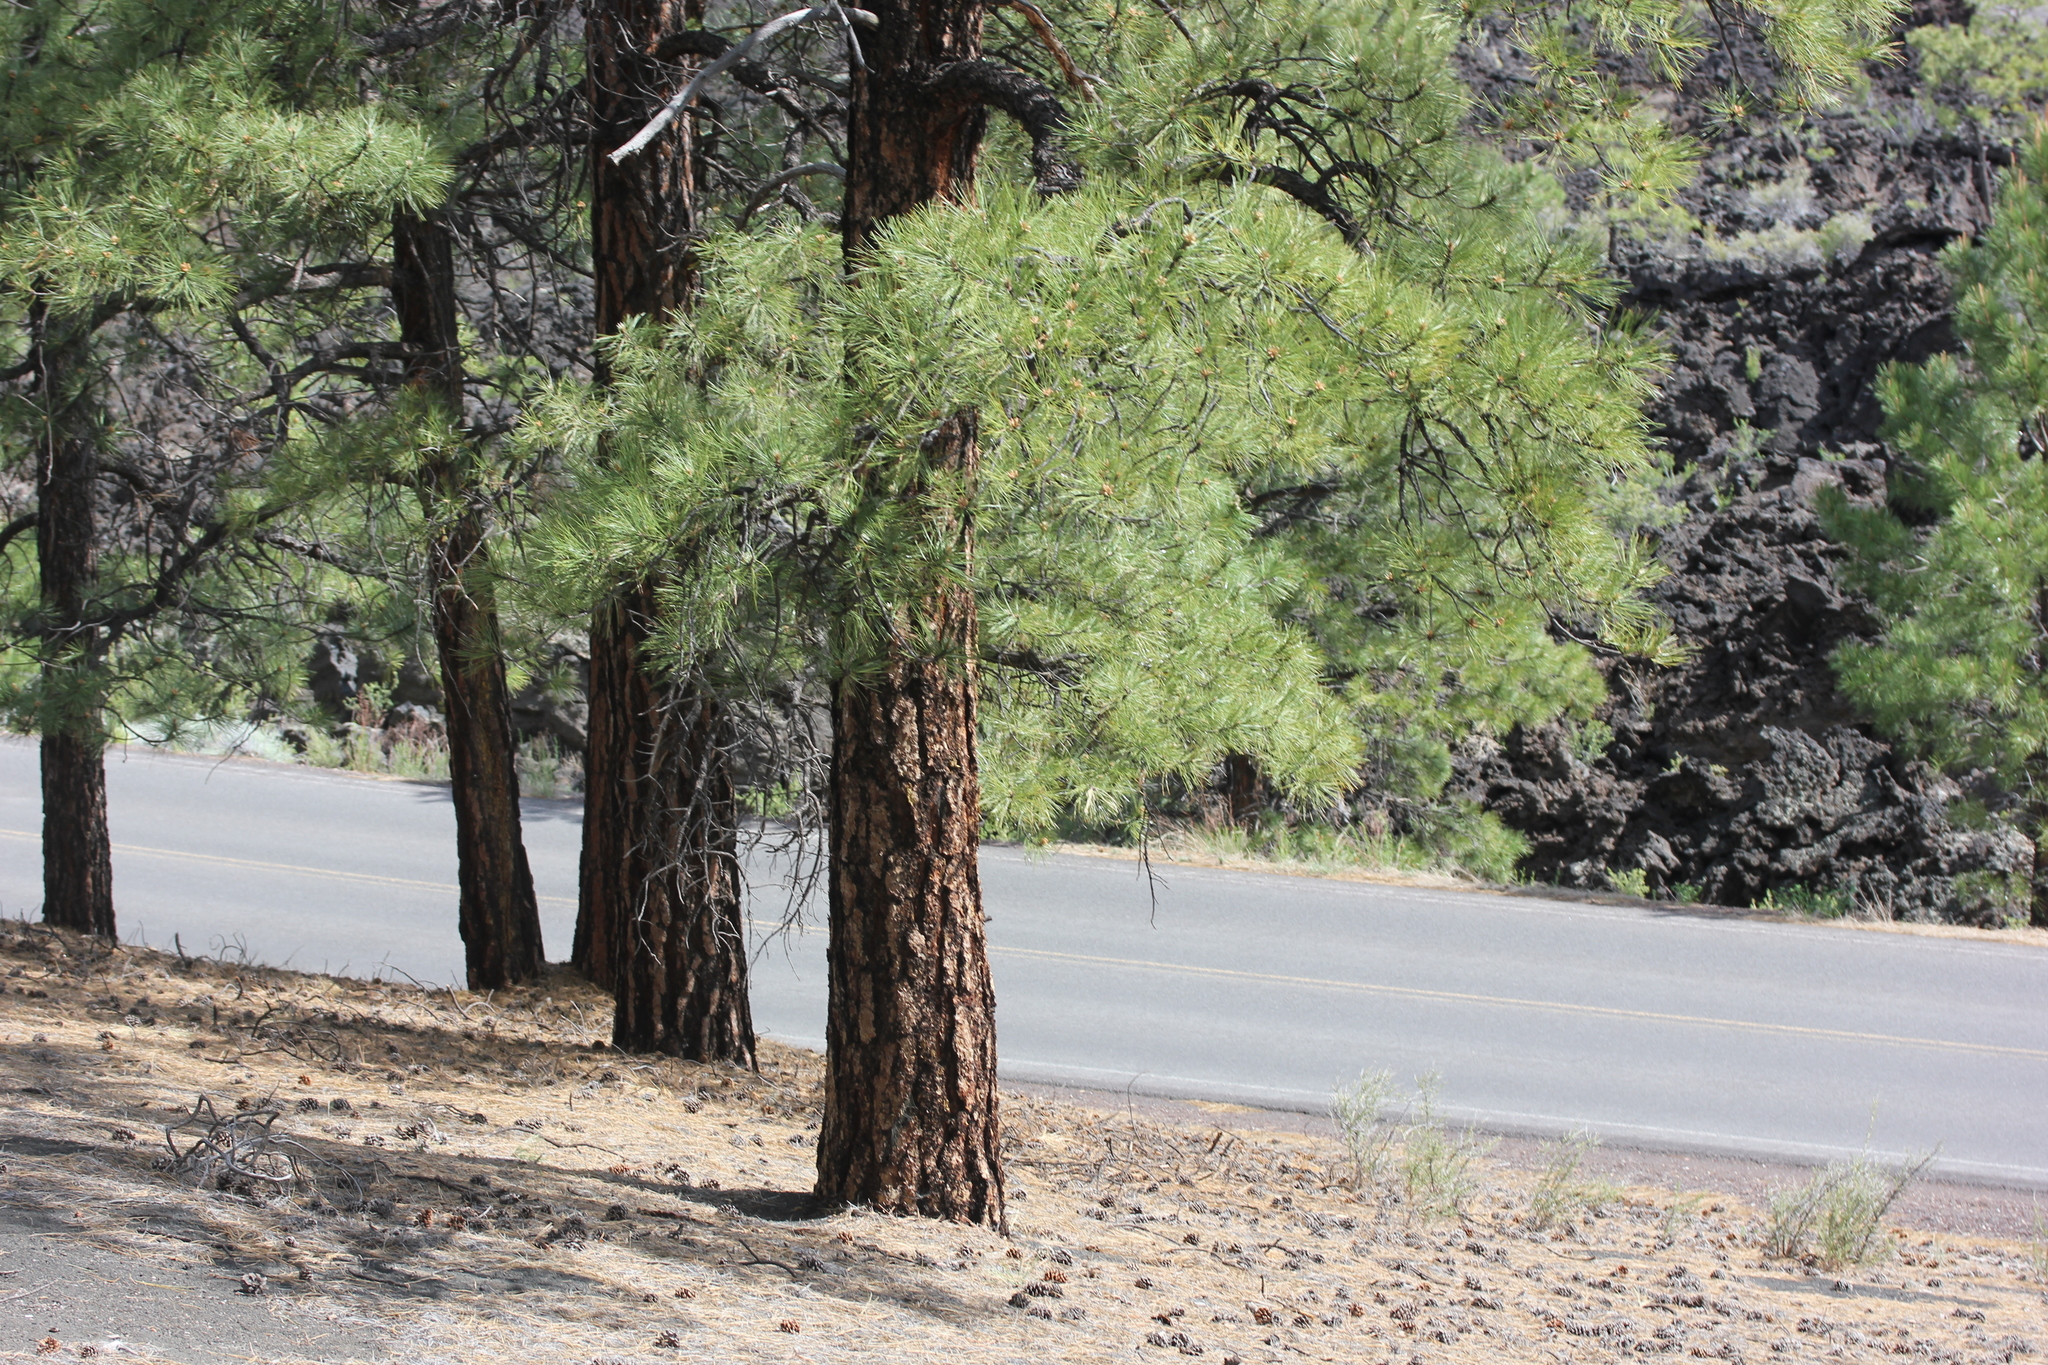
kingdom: Plantae
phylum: Tracheophyta
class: Pinopsida
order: Pinales
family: Pinaceae
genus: Pinus
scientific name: Pinus ponderosa
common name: Western yellow-pine
